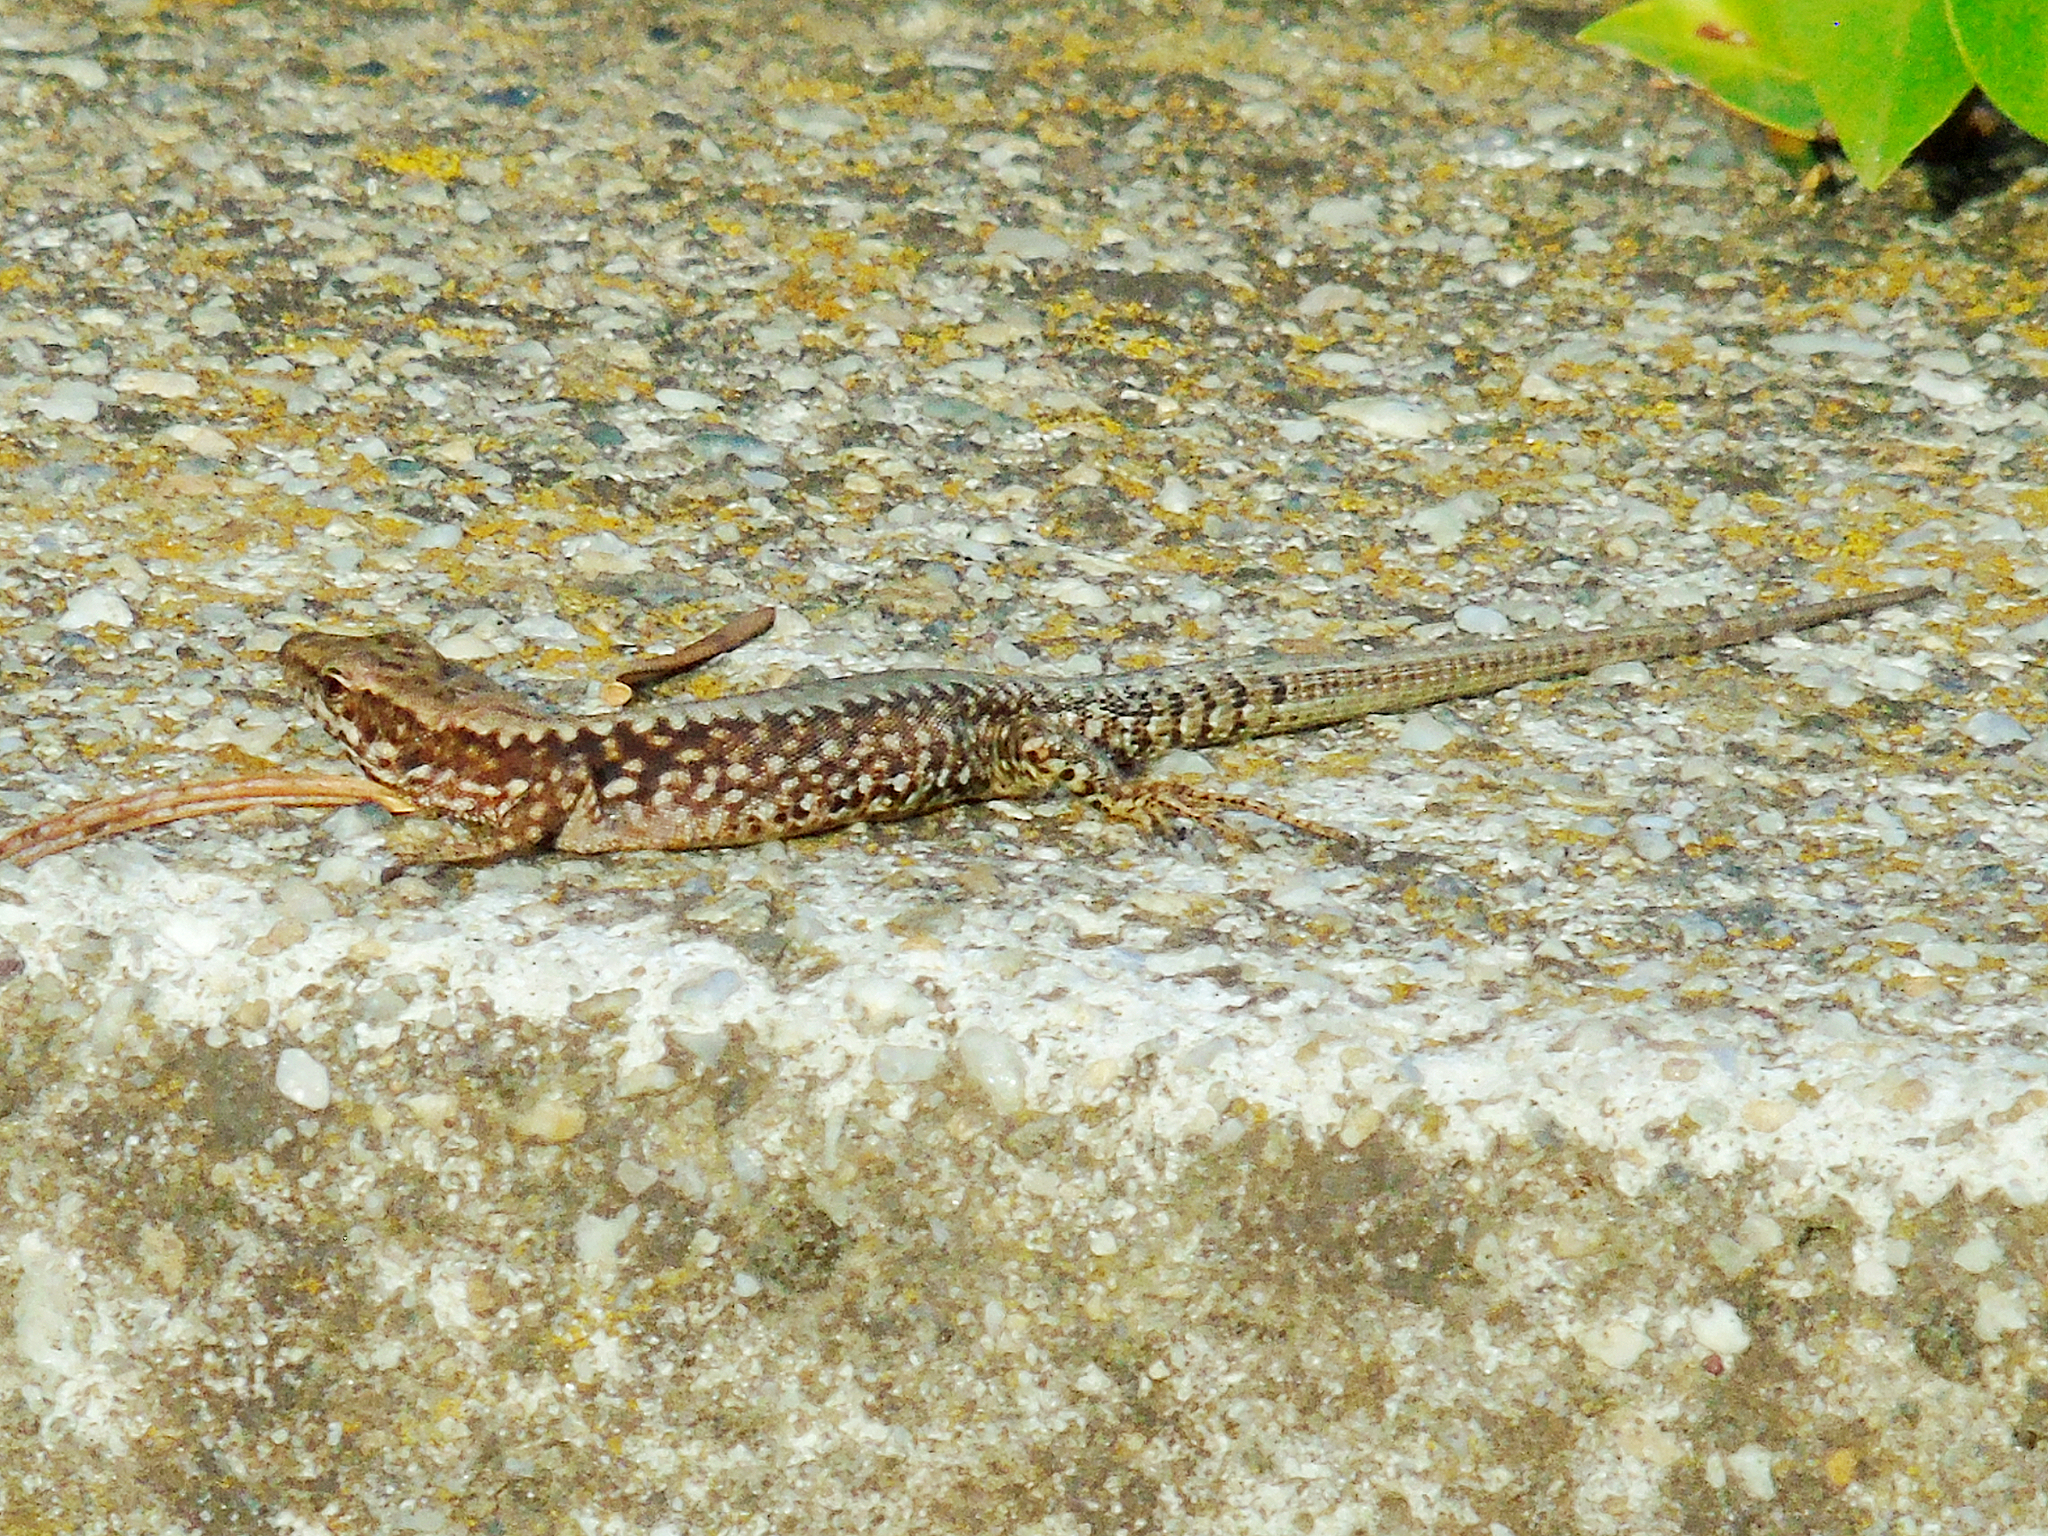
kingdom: Animalia
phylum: Chordata
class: Squamata
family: Lacertidae
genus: Podarcis
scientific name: Podarcis muralis
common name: Common wall lizard
